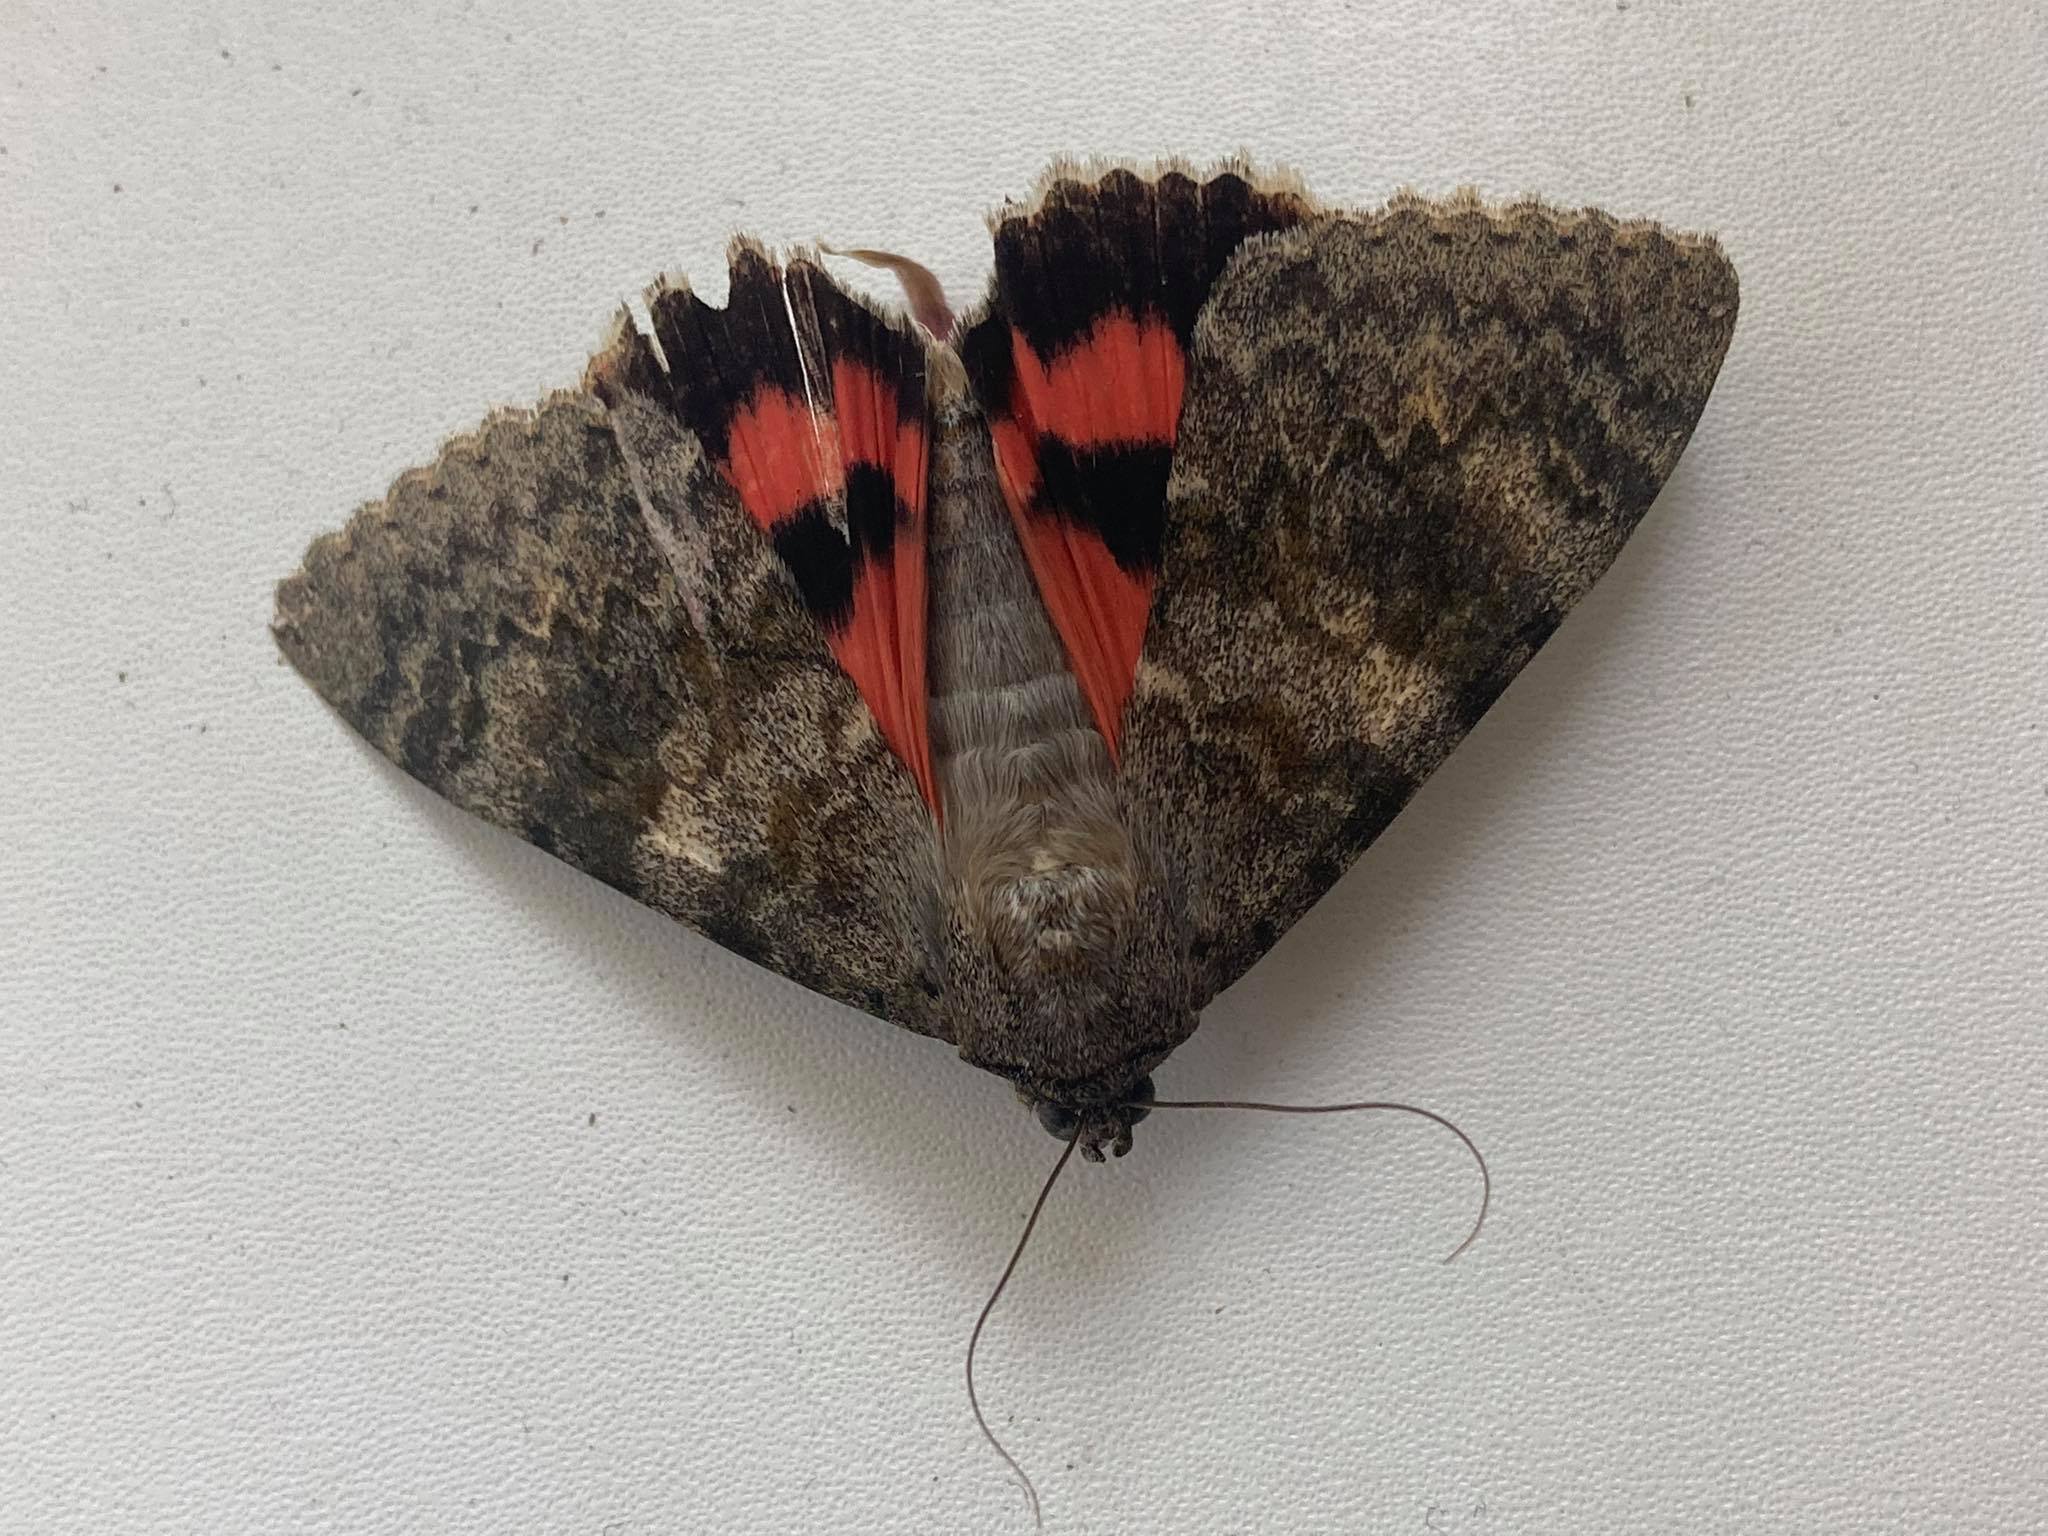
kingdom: Animalia
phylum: Arthropoda
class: Insecta
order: Lepidoptera
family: Erebidae
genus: Catocala
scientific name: Catocala elocata
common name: French red underwing
